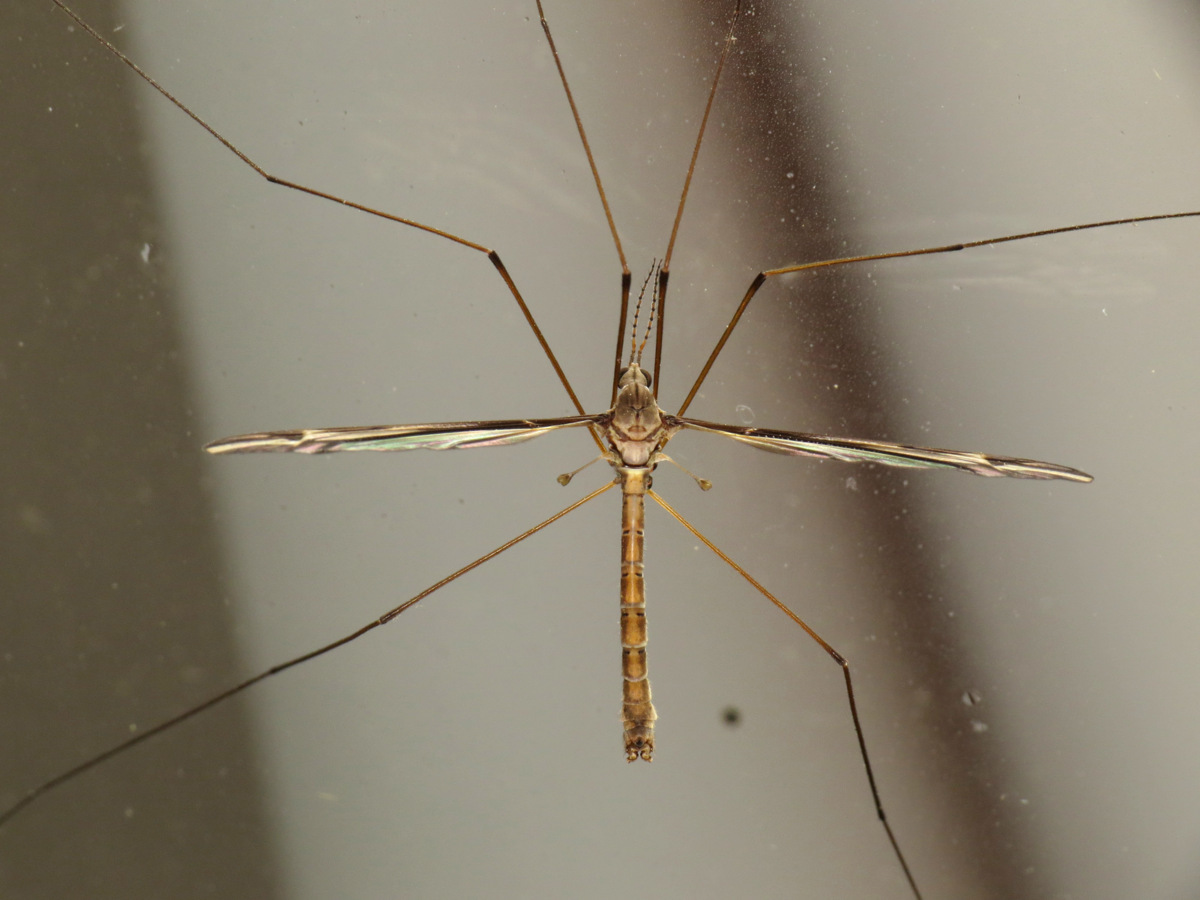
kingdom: Animalia
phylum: Arthropoda
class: Insecta
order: Diptera
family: Tipulidae
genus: Tipula
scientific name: Tipula furca
